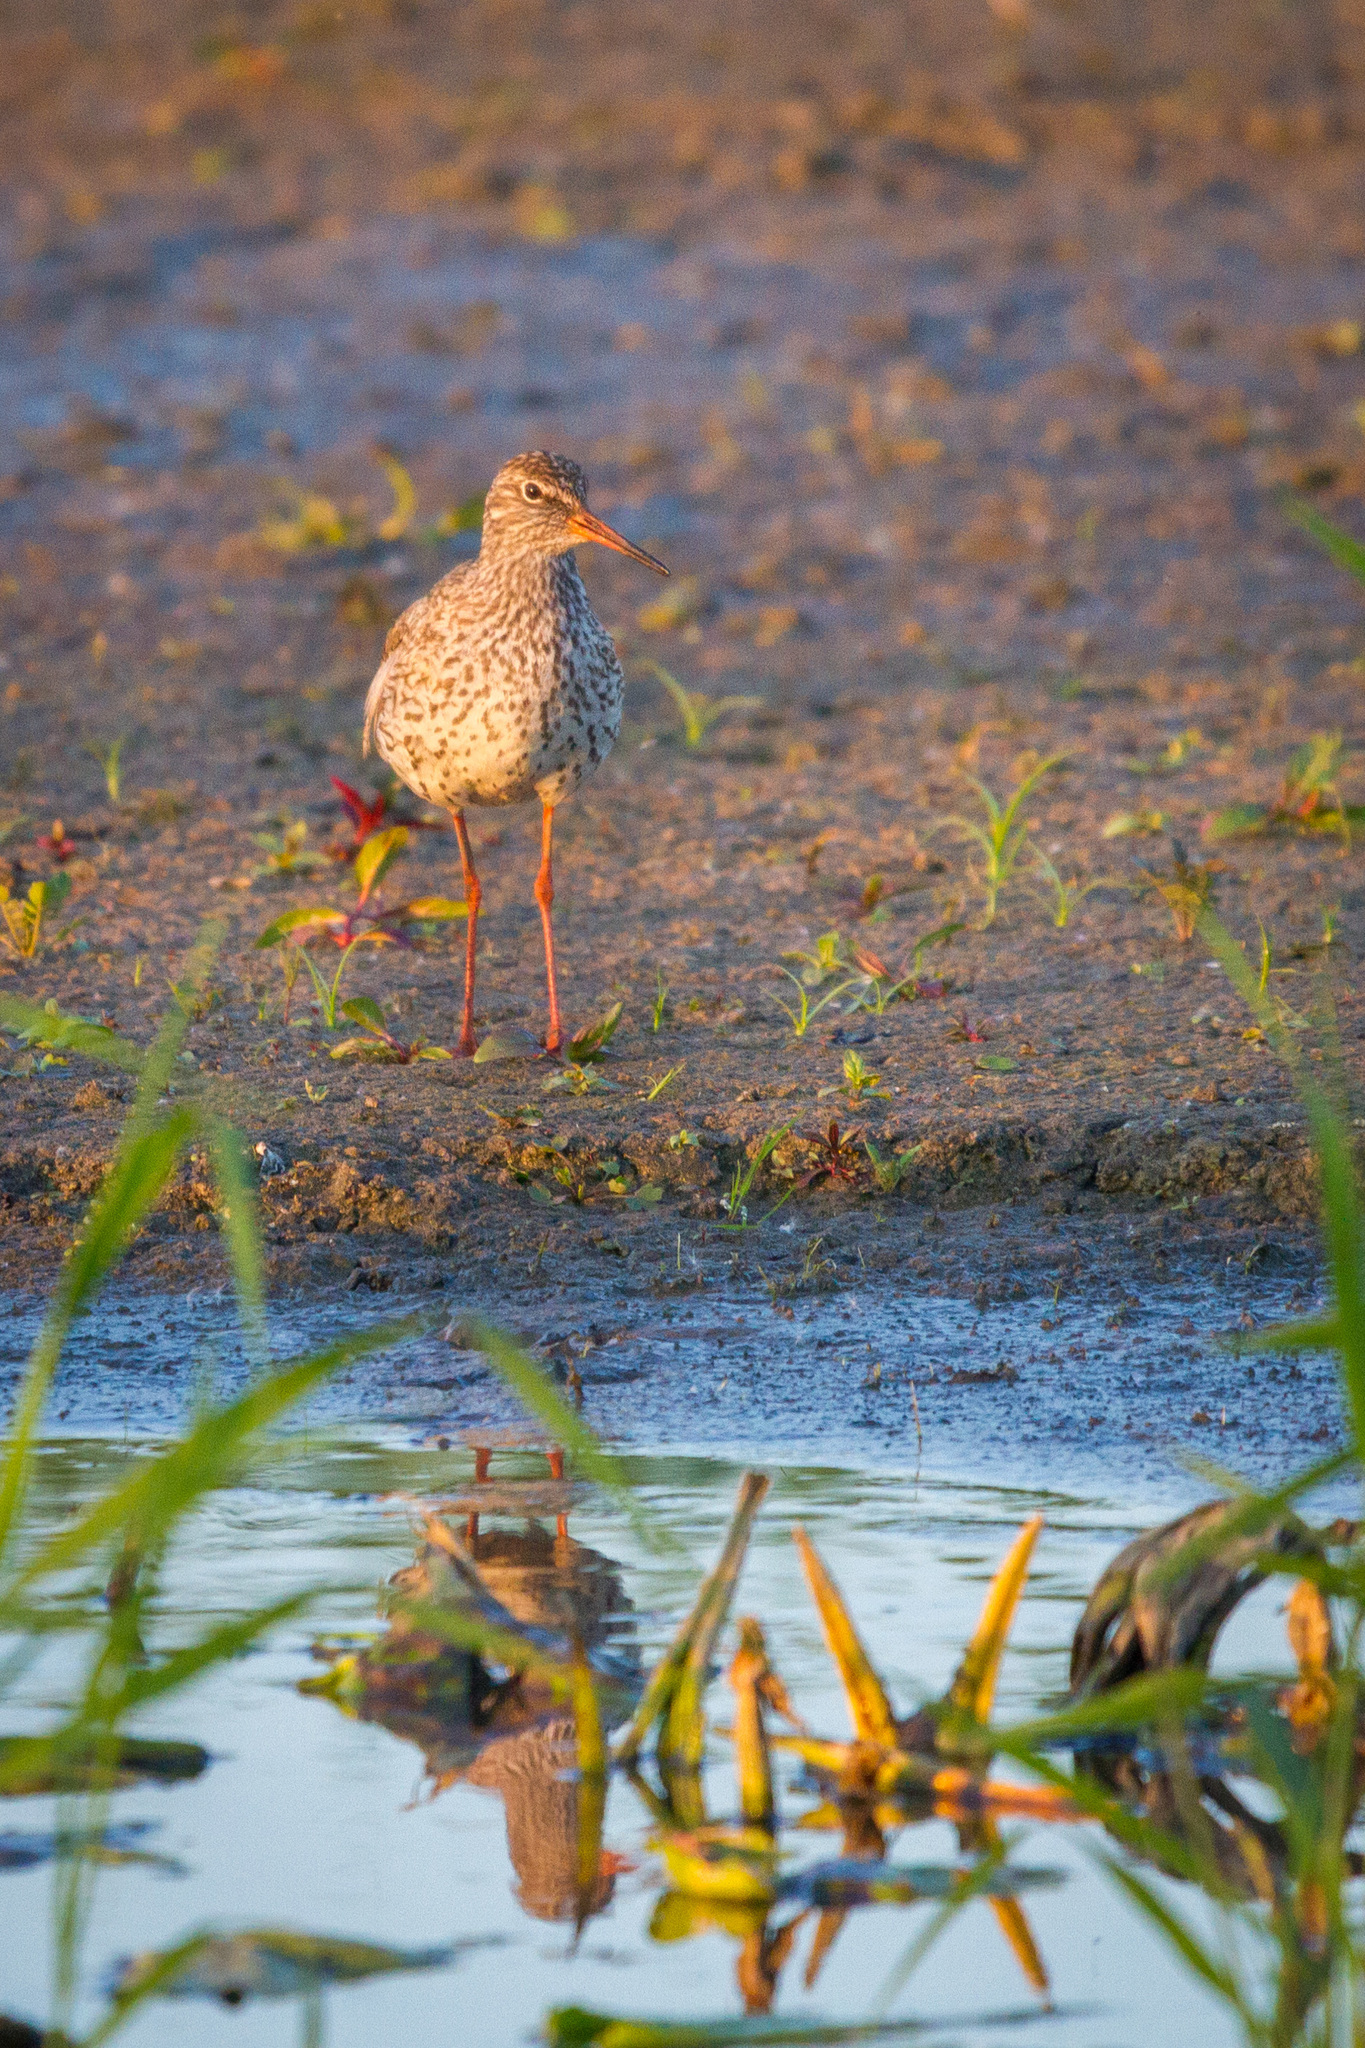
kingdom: Animalia
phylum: Chordata
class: Aves
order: Charadriiformes
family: Scolopacidae
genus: Tringa
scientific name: Tringa totanus
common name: Common redshank
